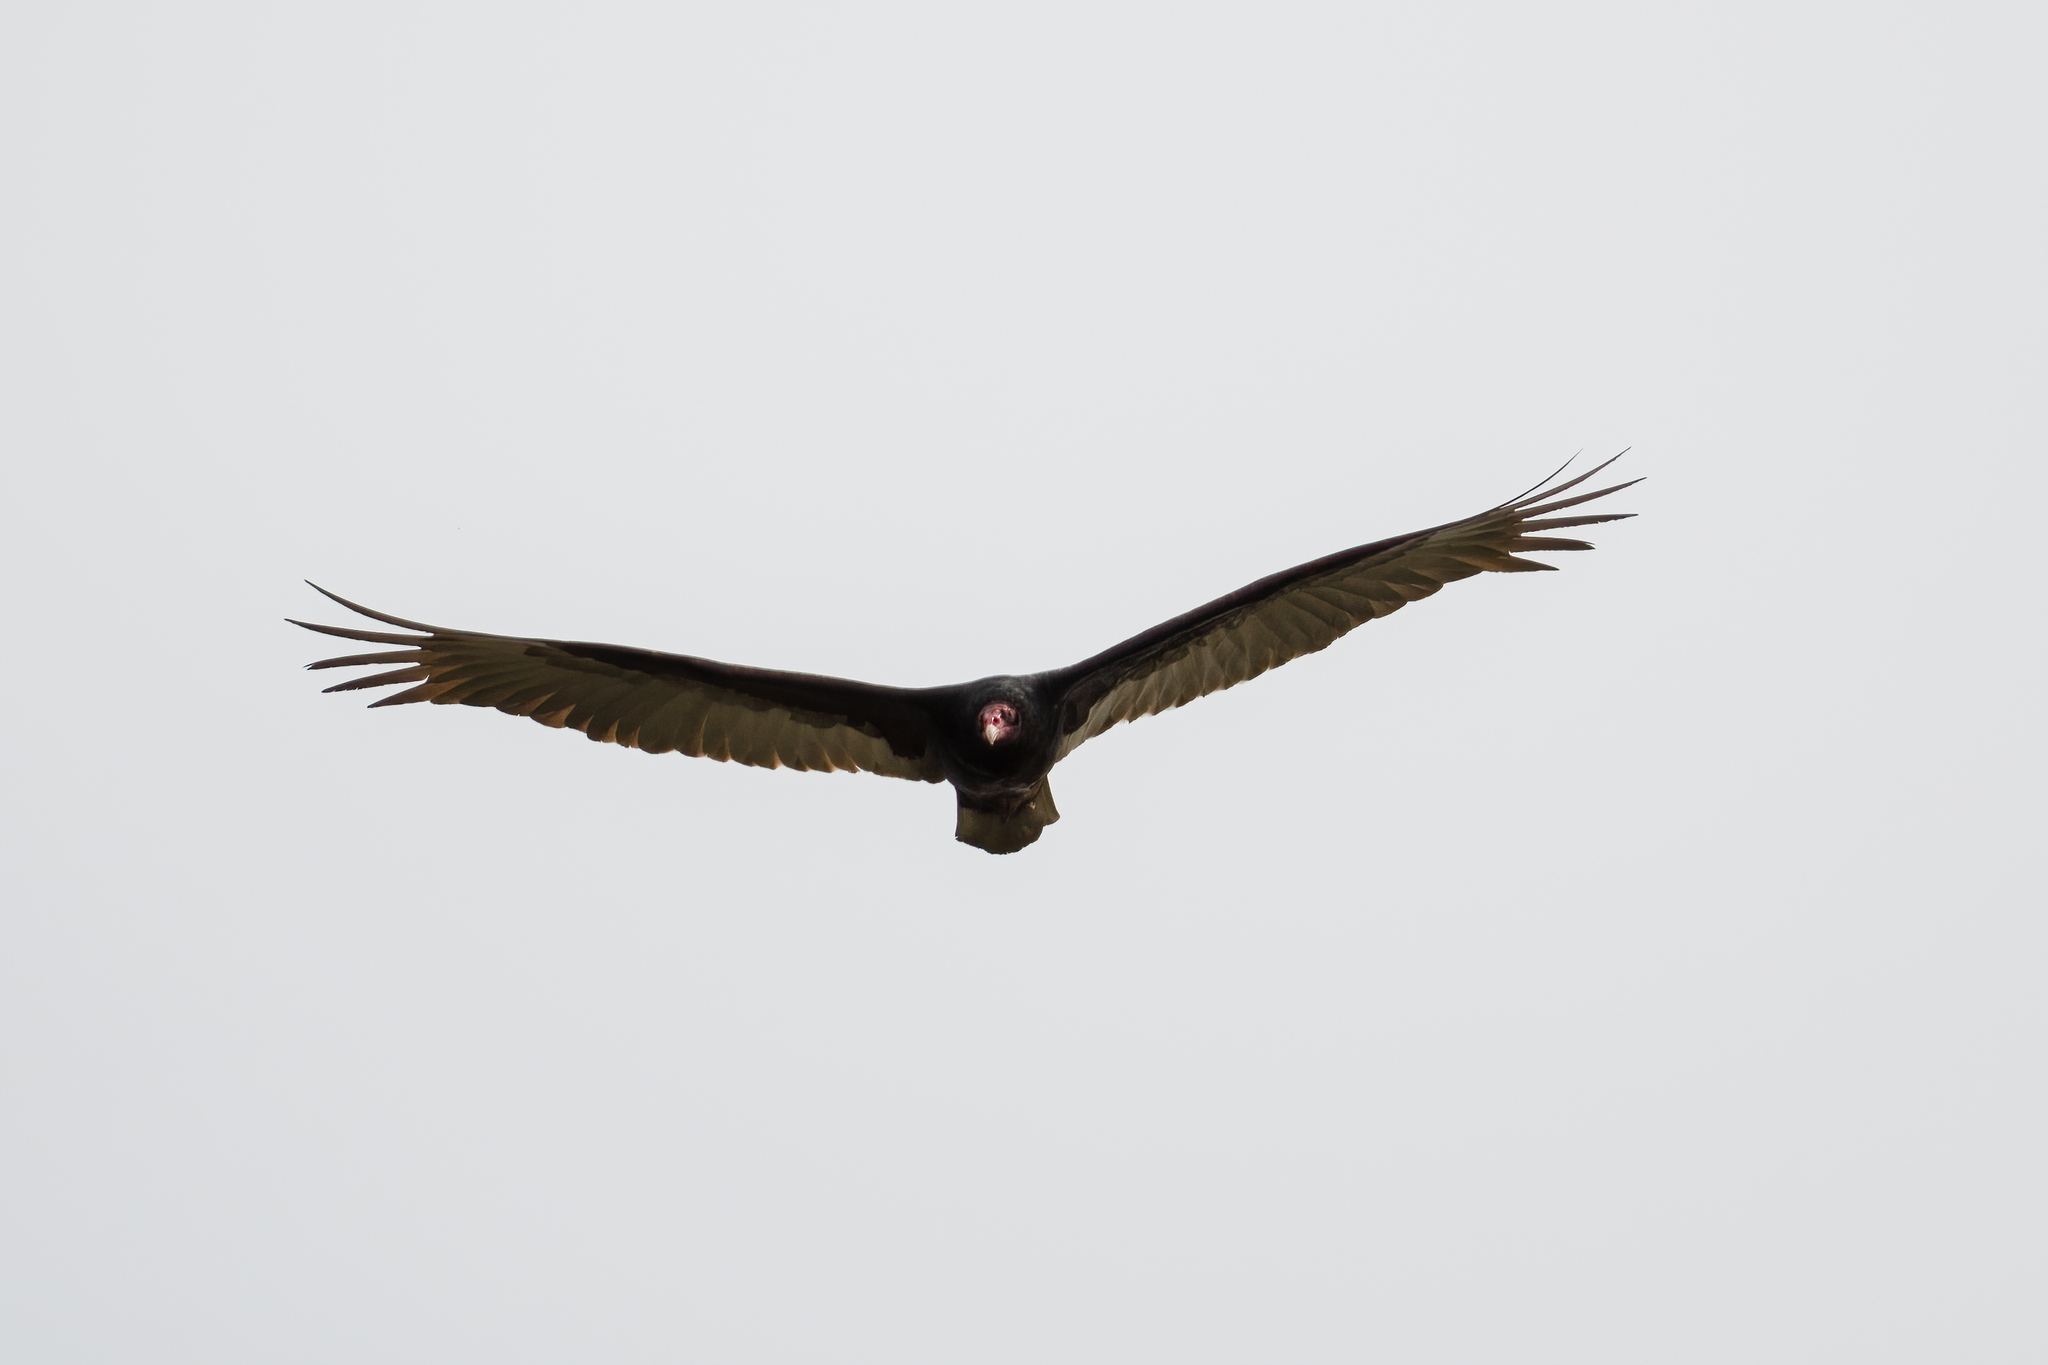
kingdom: Animalia
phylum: Chordata
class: Aves
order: Accipitriformes
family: Cathartidae
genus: Cathartes
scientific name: Cathartes aura
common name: Turkey vulture
